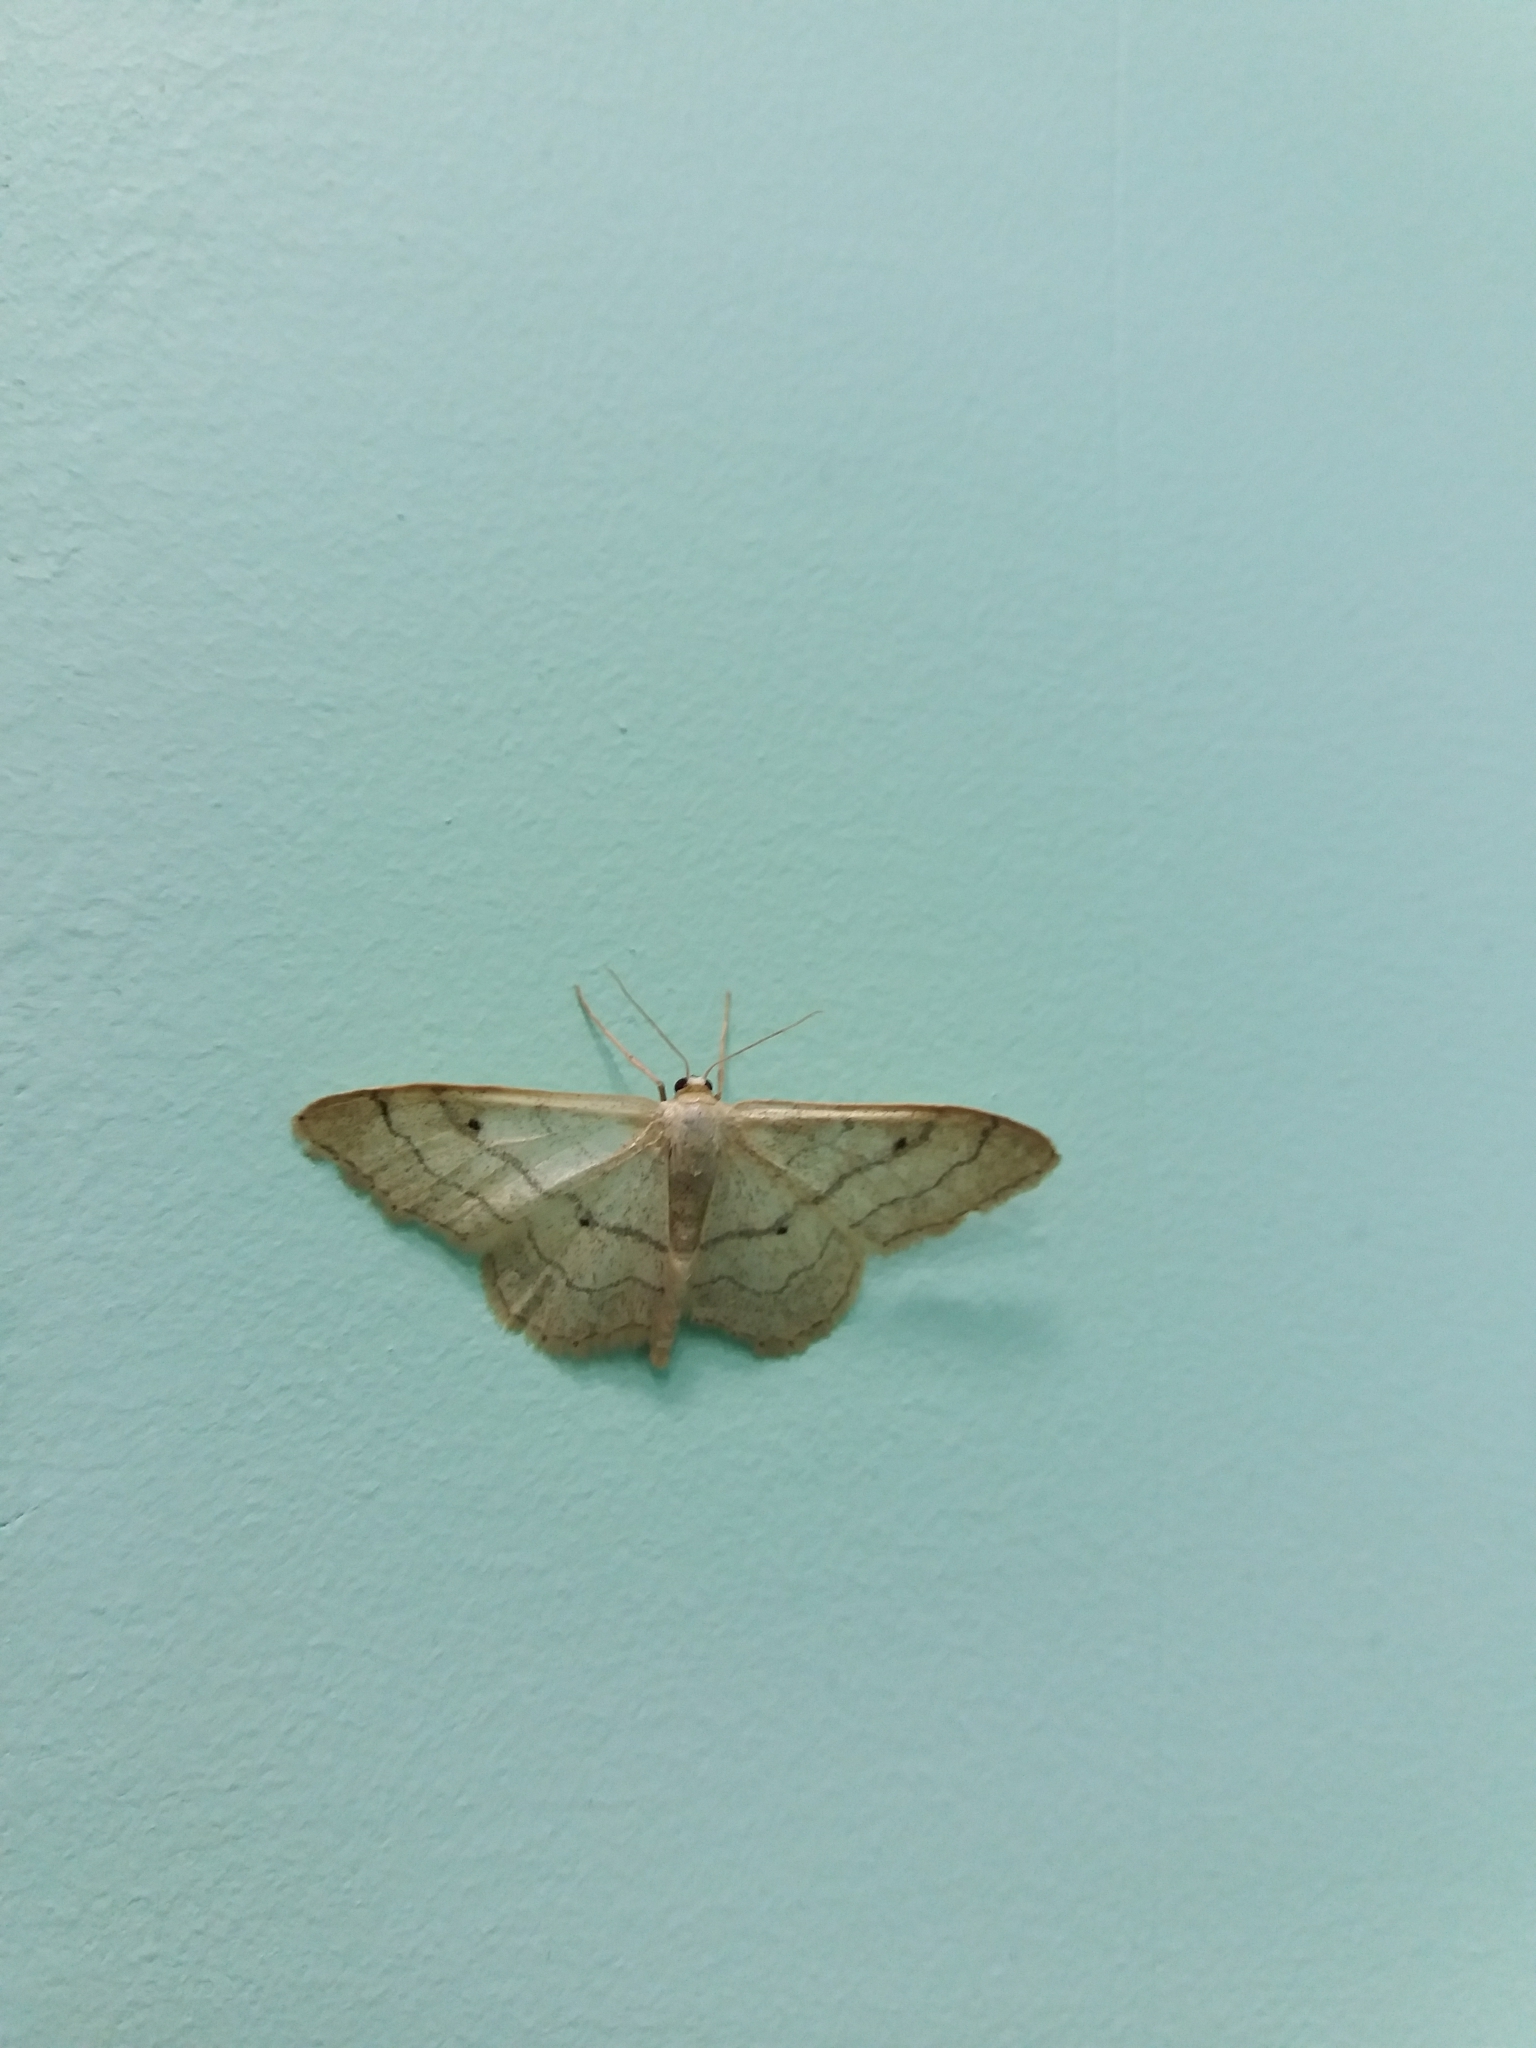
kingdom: Animalia
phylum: Arthropoda
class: Insecta
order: Lepidoptera
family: Geometridae
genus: Idaea
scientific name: Idaea aversata
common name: Riband wave
